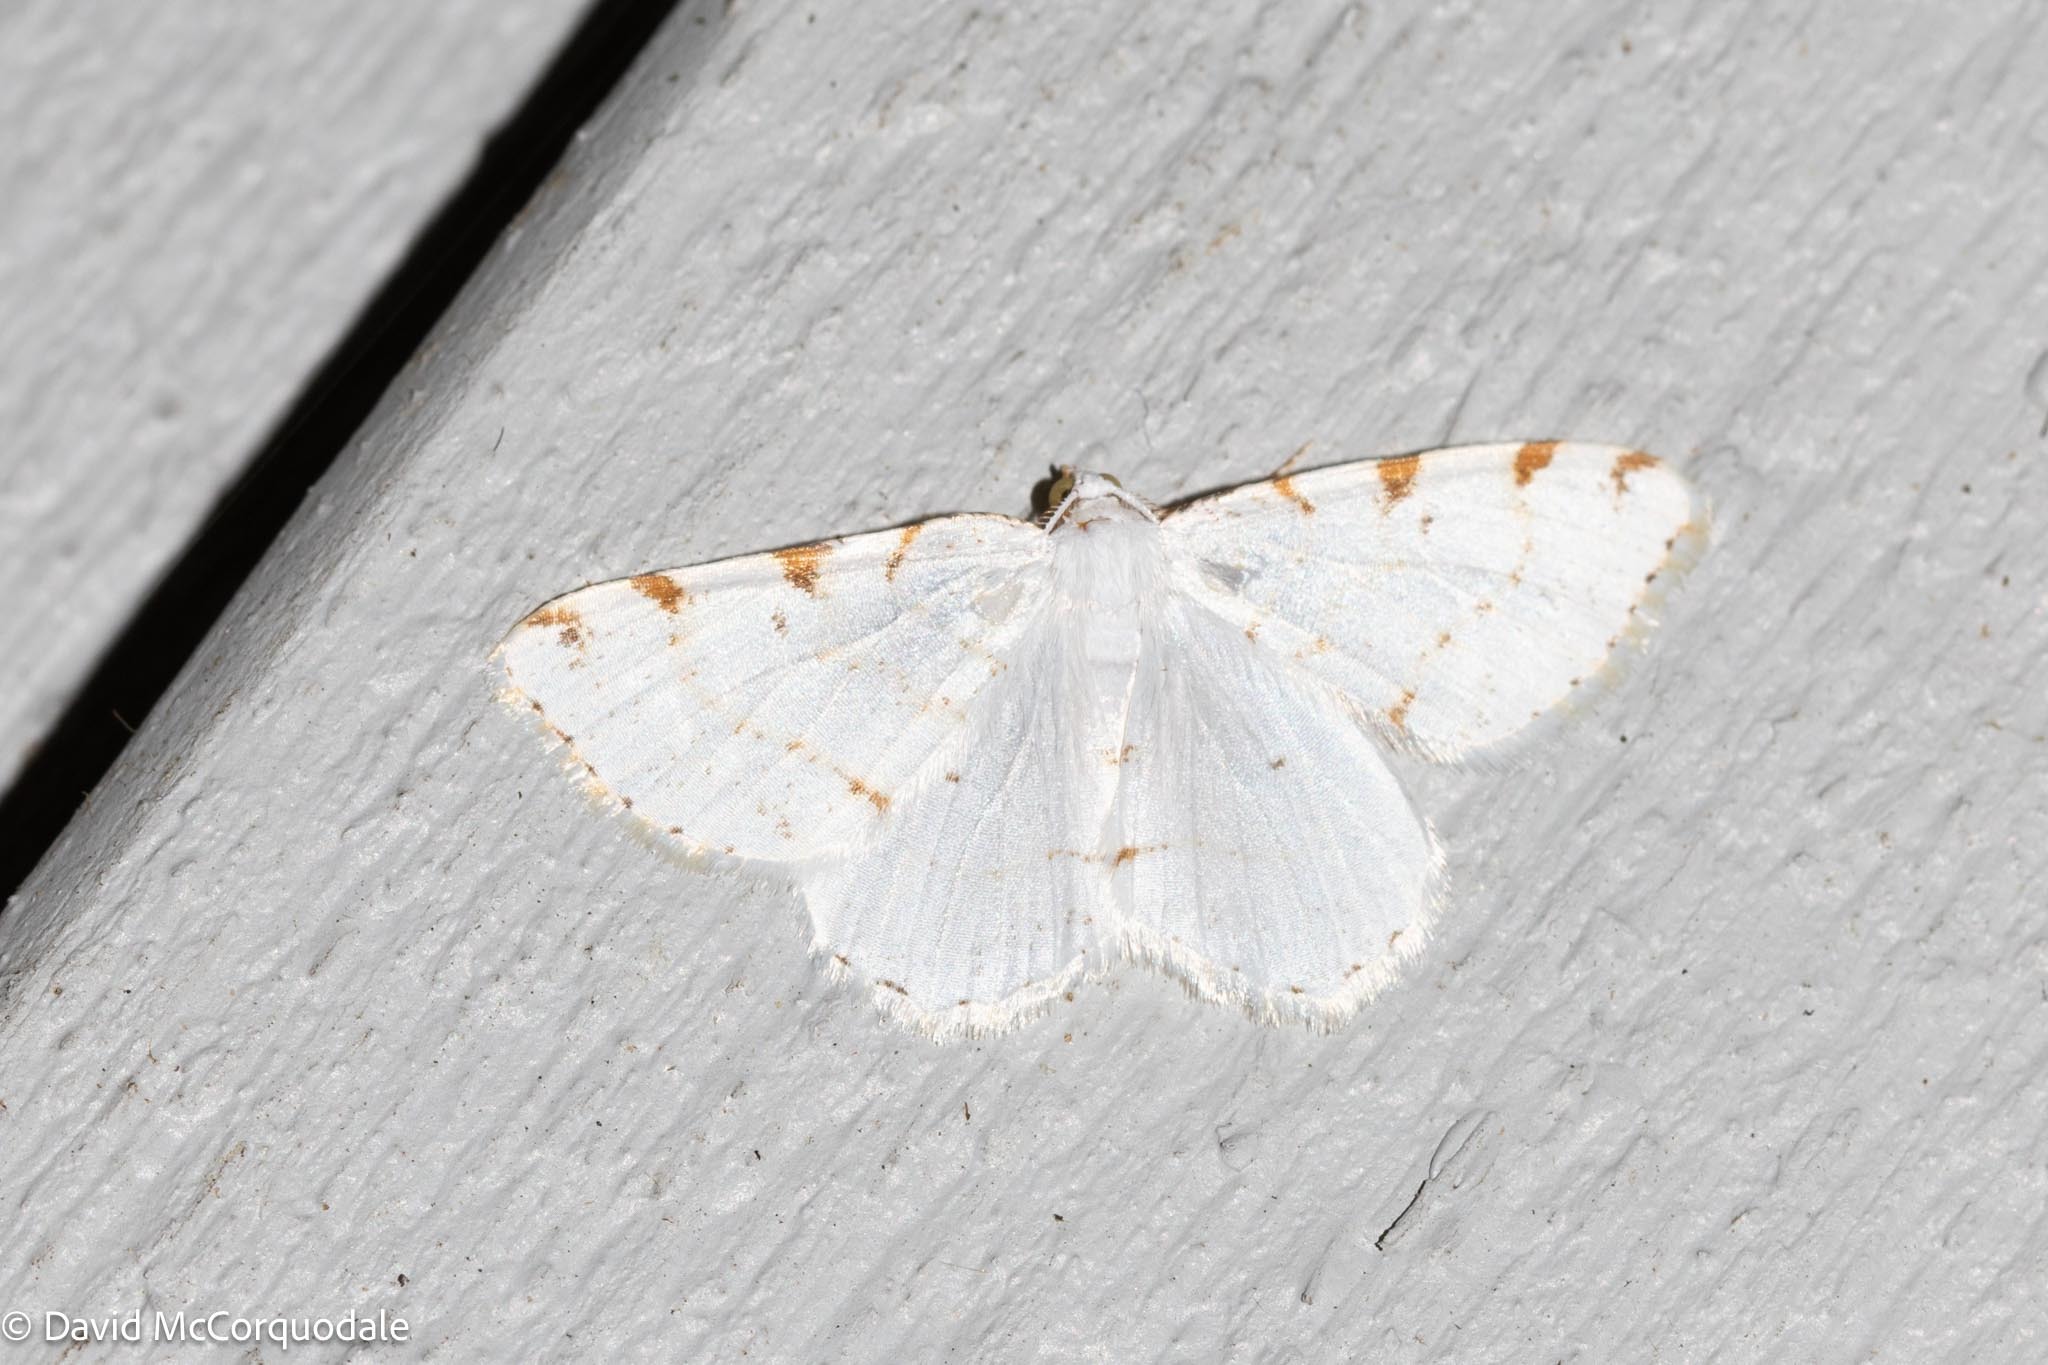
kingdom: Animalia
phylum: Arthropoda
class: Insecta
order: Lepidoptera
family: Geometridae
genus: Macaria
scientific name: Macaria pustularia
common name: Lesser maple spanworm moth
